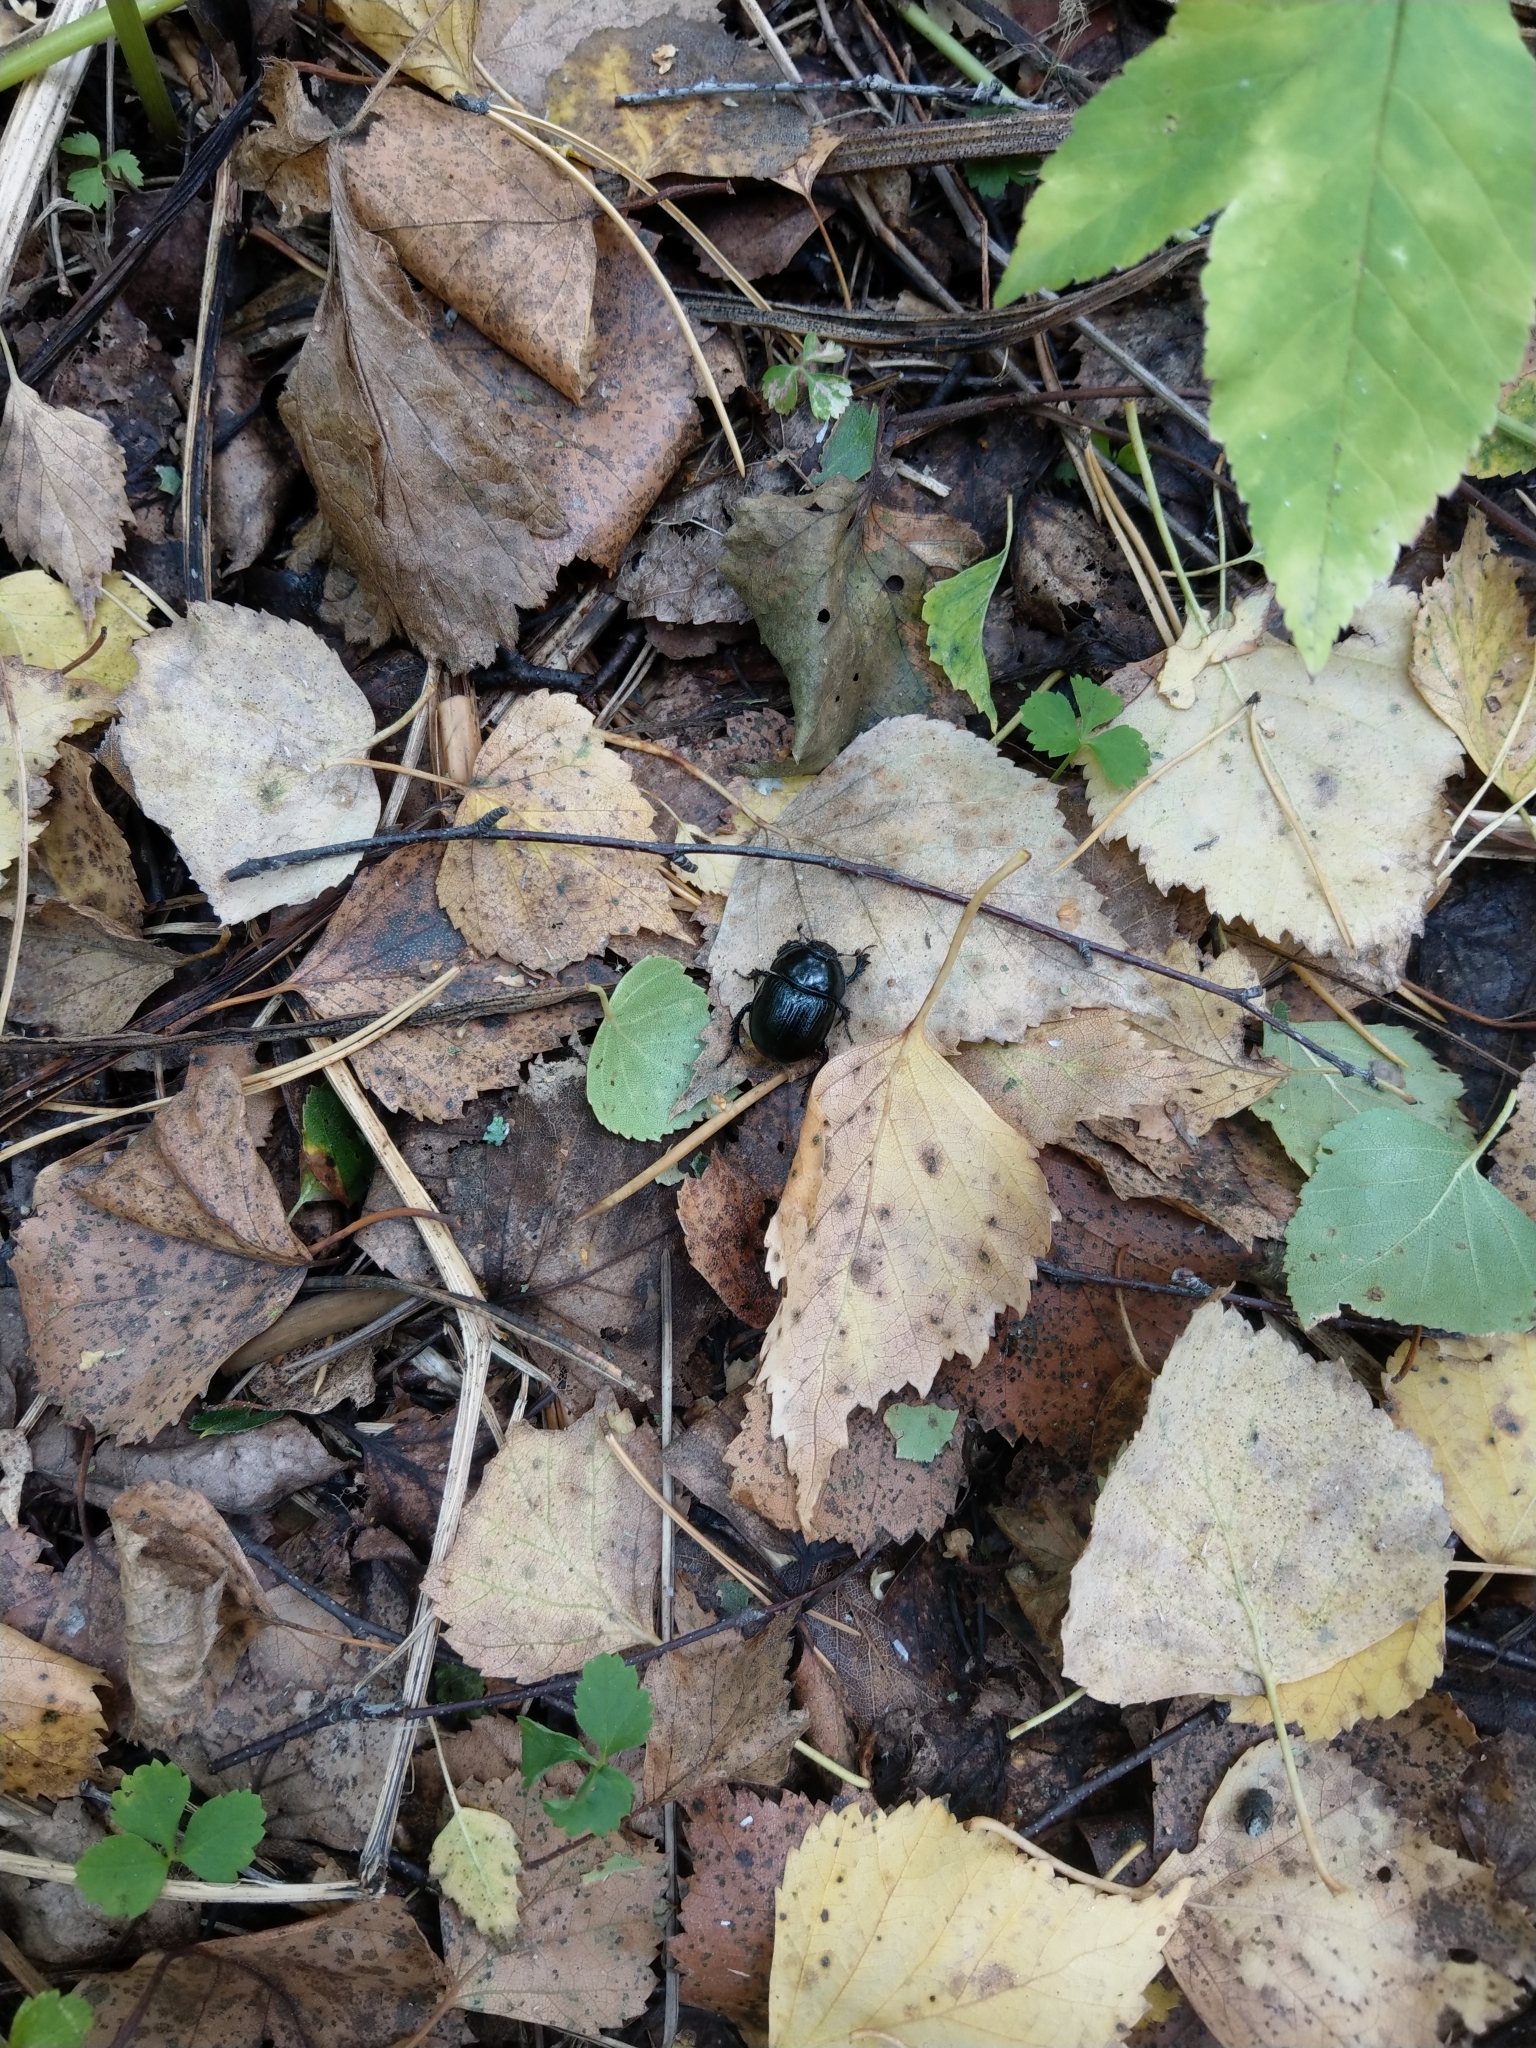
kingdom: Animalia
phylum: Arthropoda
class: Insecta
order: Coleoptera
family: Geotrupidae
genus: Anoplotrupes
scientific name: Anoplotrupes stercorosus
